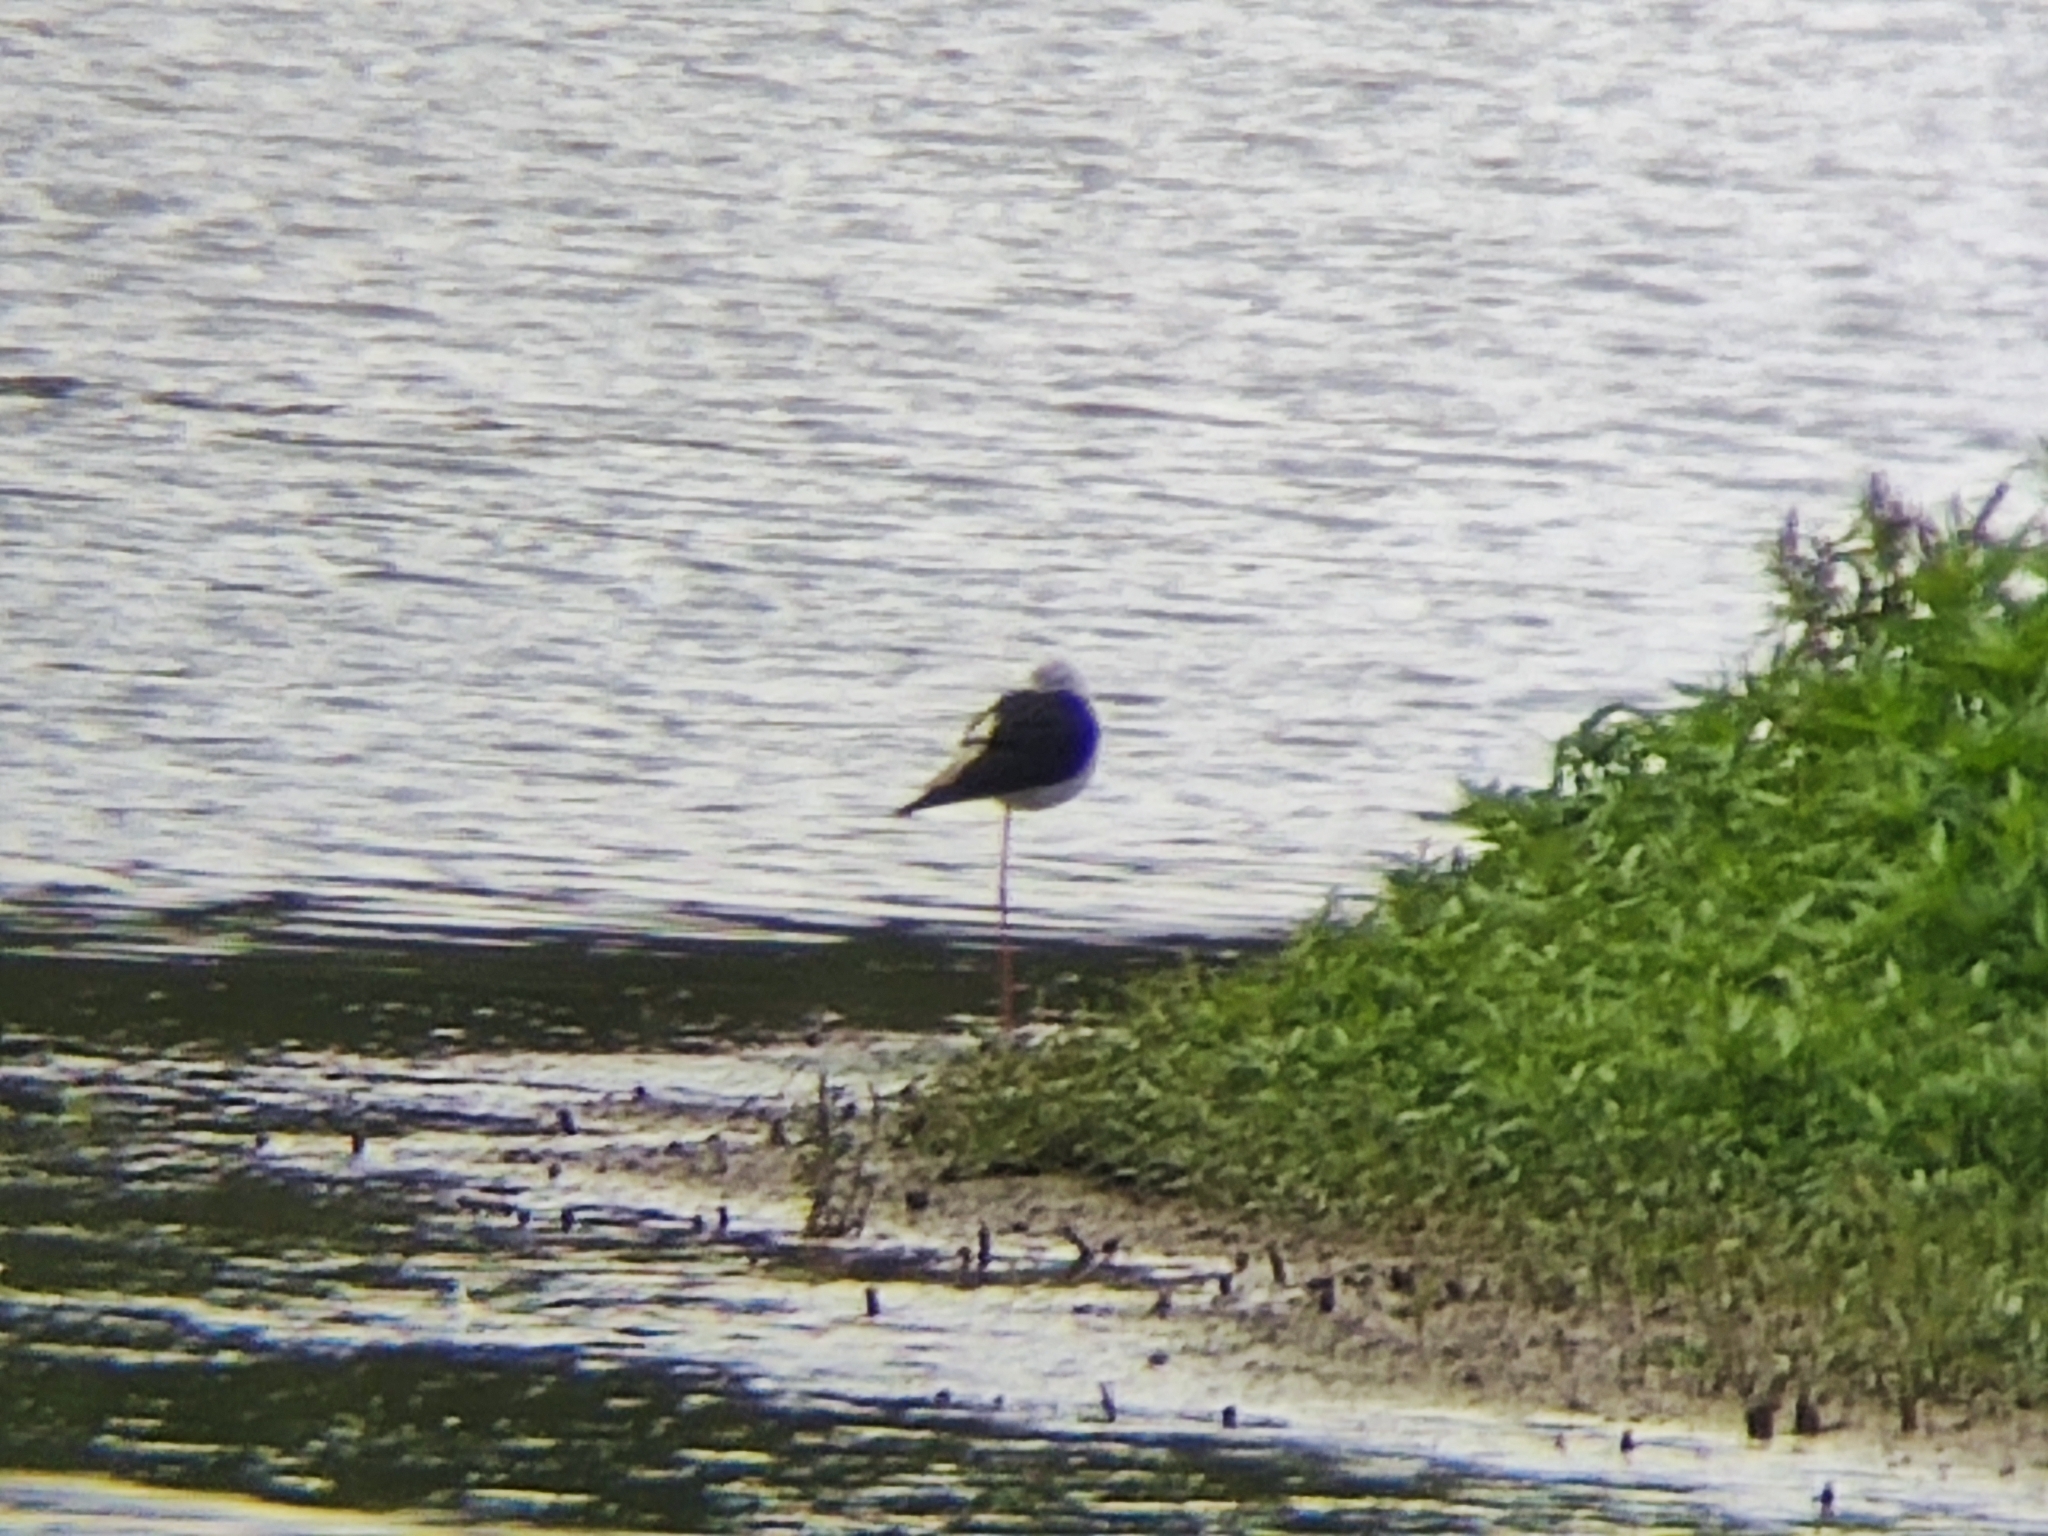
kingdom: Animalia
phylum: Chordata
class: Aves
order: Charadriiformes
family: Recurvirostridae
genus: Himantopus
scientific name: Himantopus himantopus
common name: Black-winged stilt
